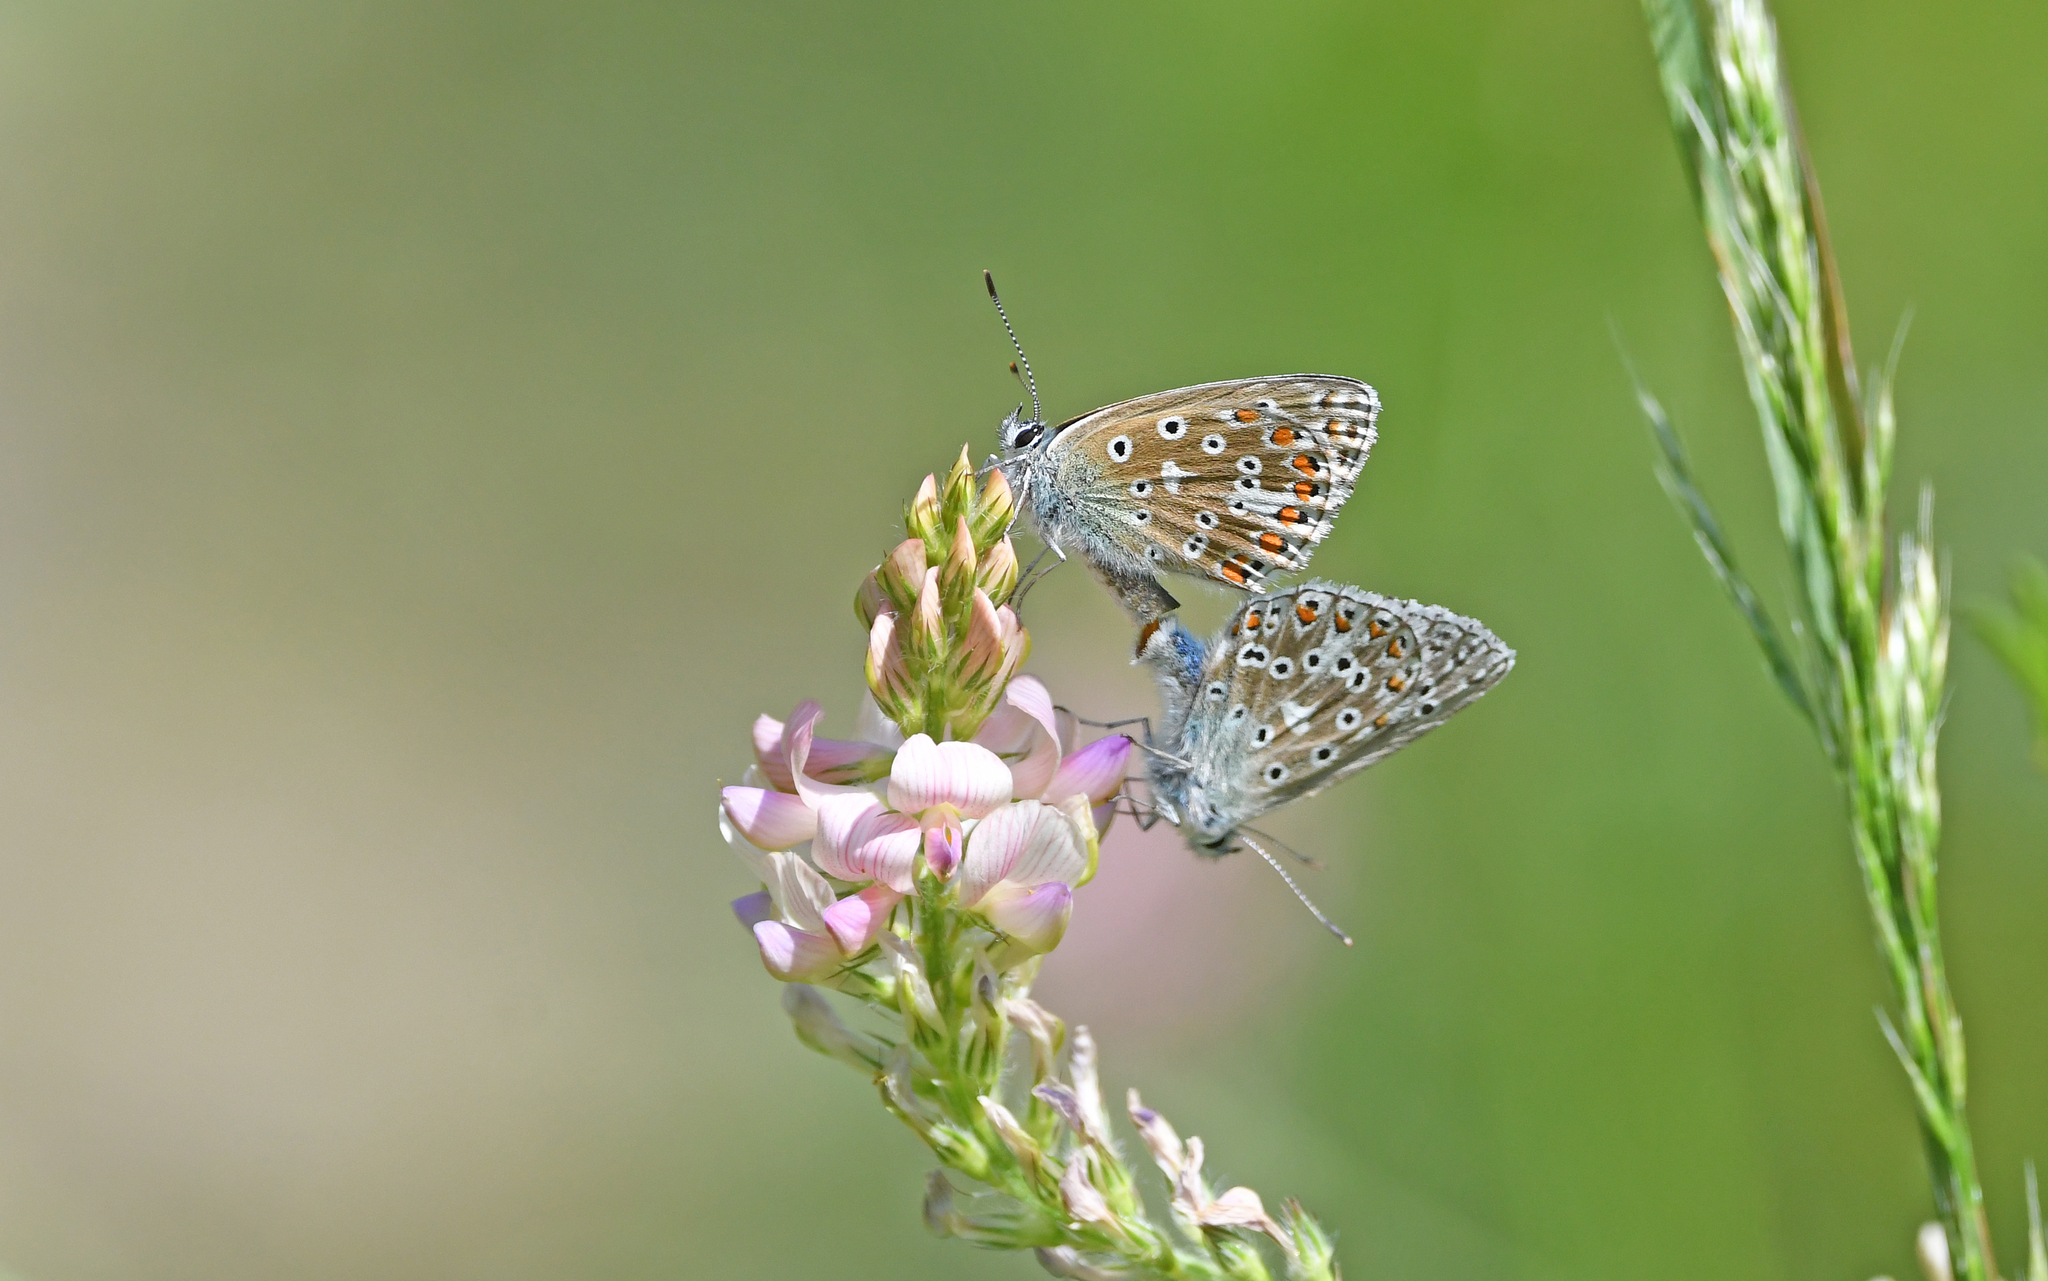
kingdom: Animalia
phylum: Arthropoda
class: Insecta
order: Lepidoptera
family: Lycaenidae
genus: Lysandra
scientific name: Lysandra bellargus
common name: Adonis blue
